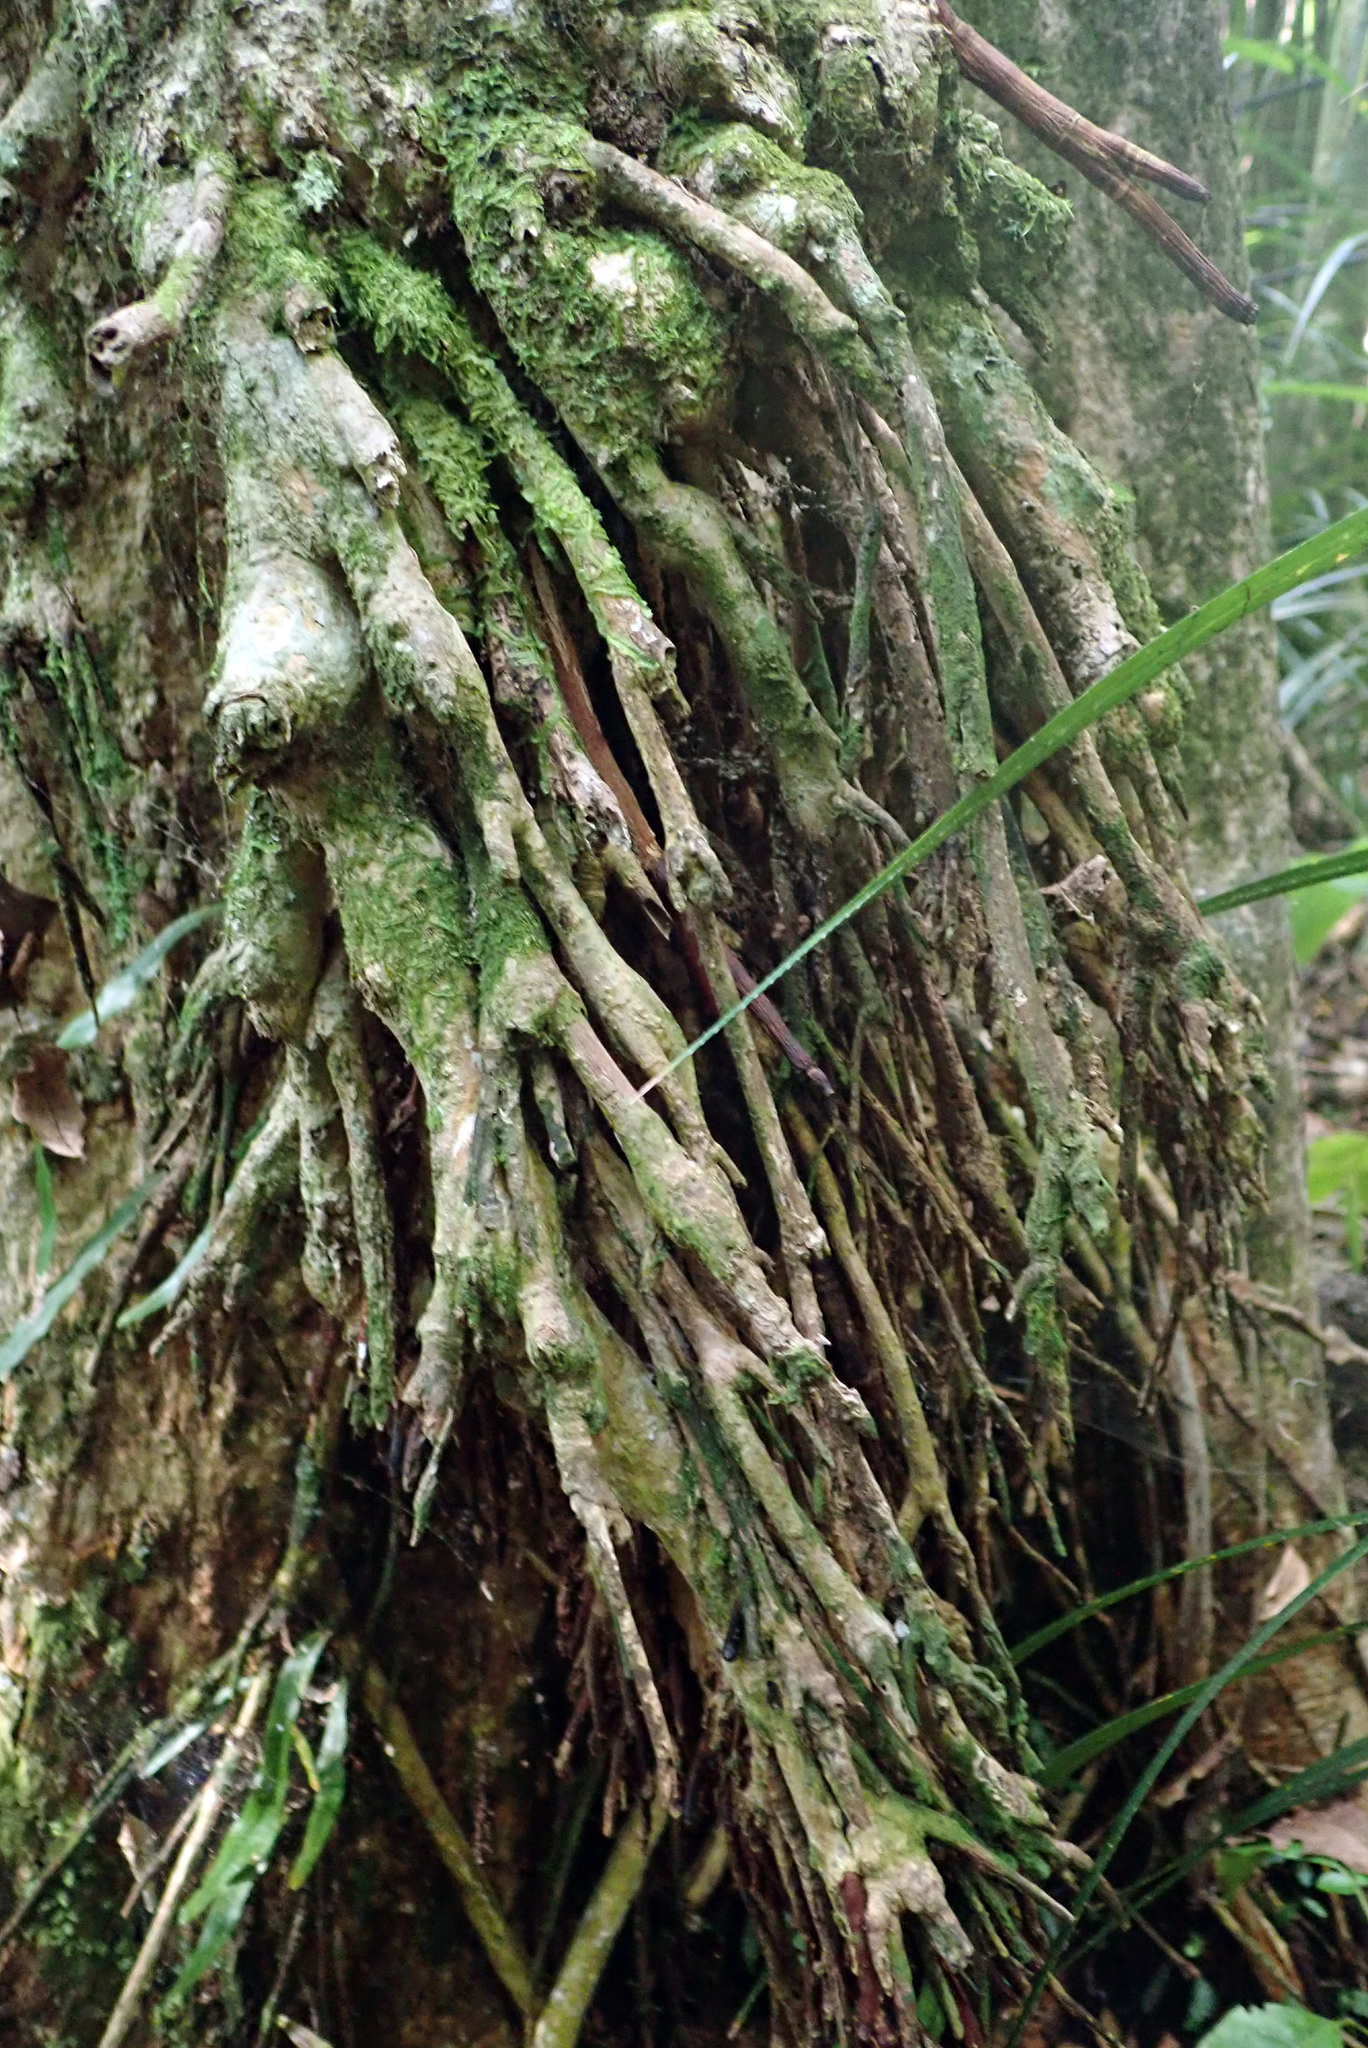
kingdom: Plantae
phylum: Tracheophyta
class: Magnoliopsida
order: Myrtales
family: Myrtaceae
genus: Syzygium
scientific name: Syzygium maire
